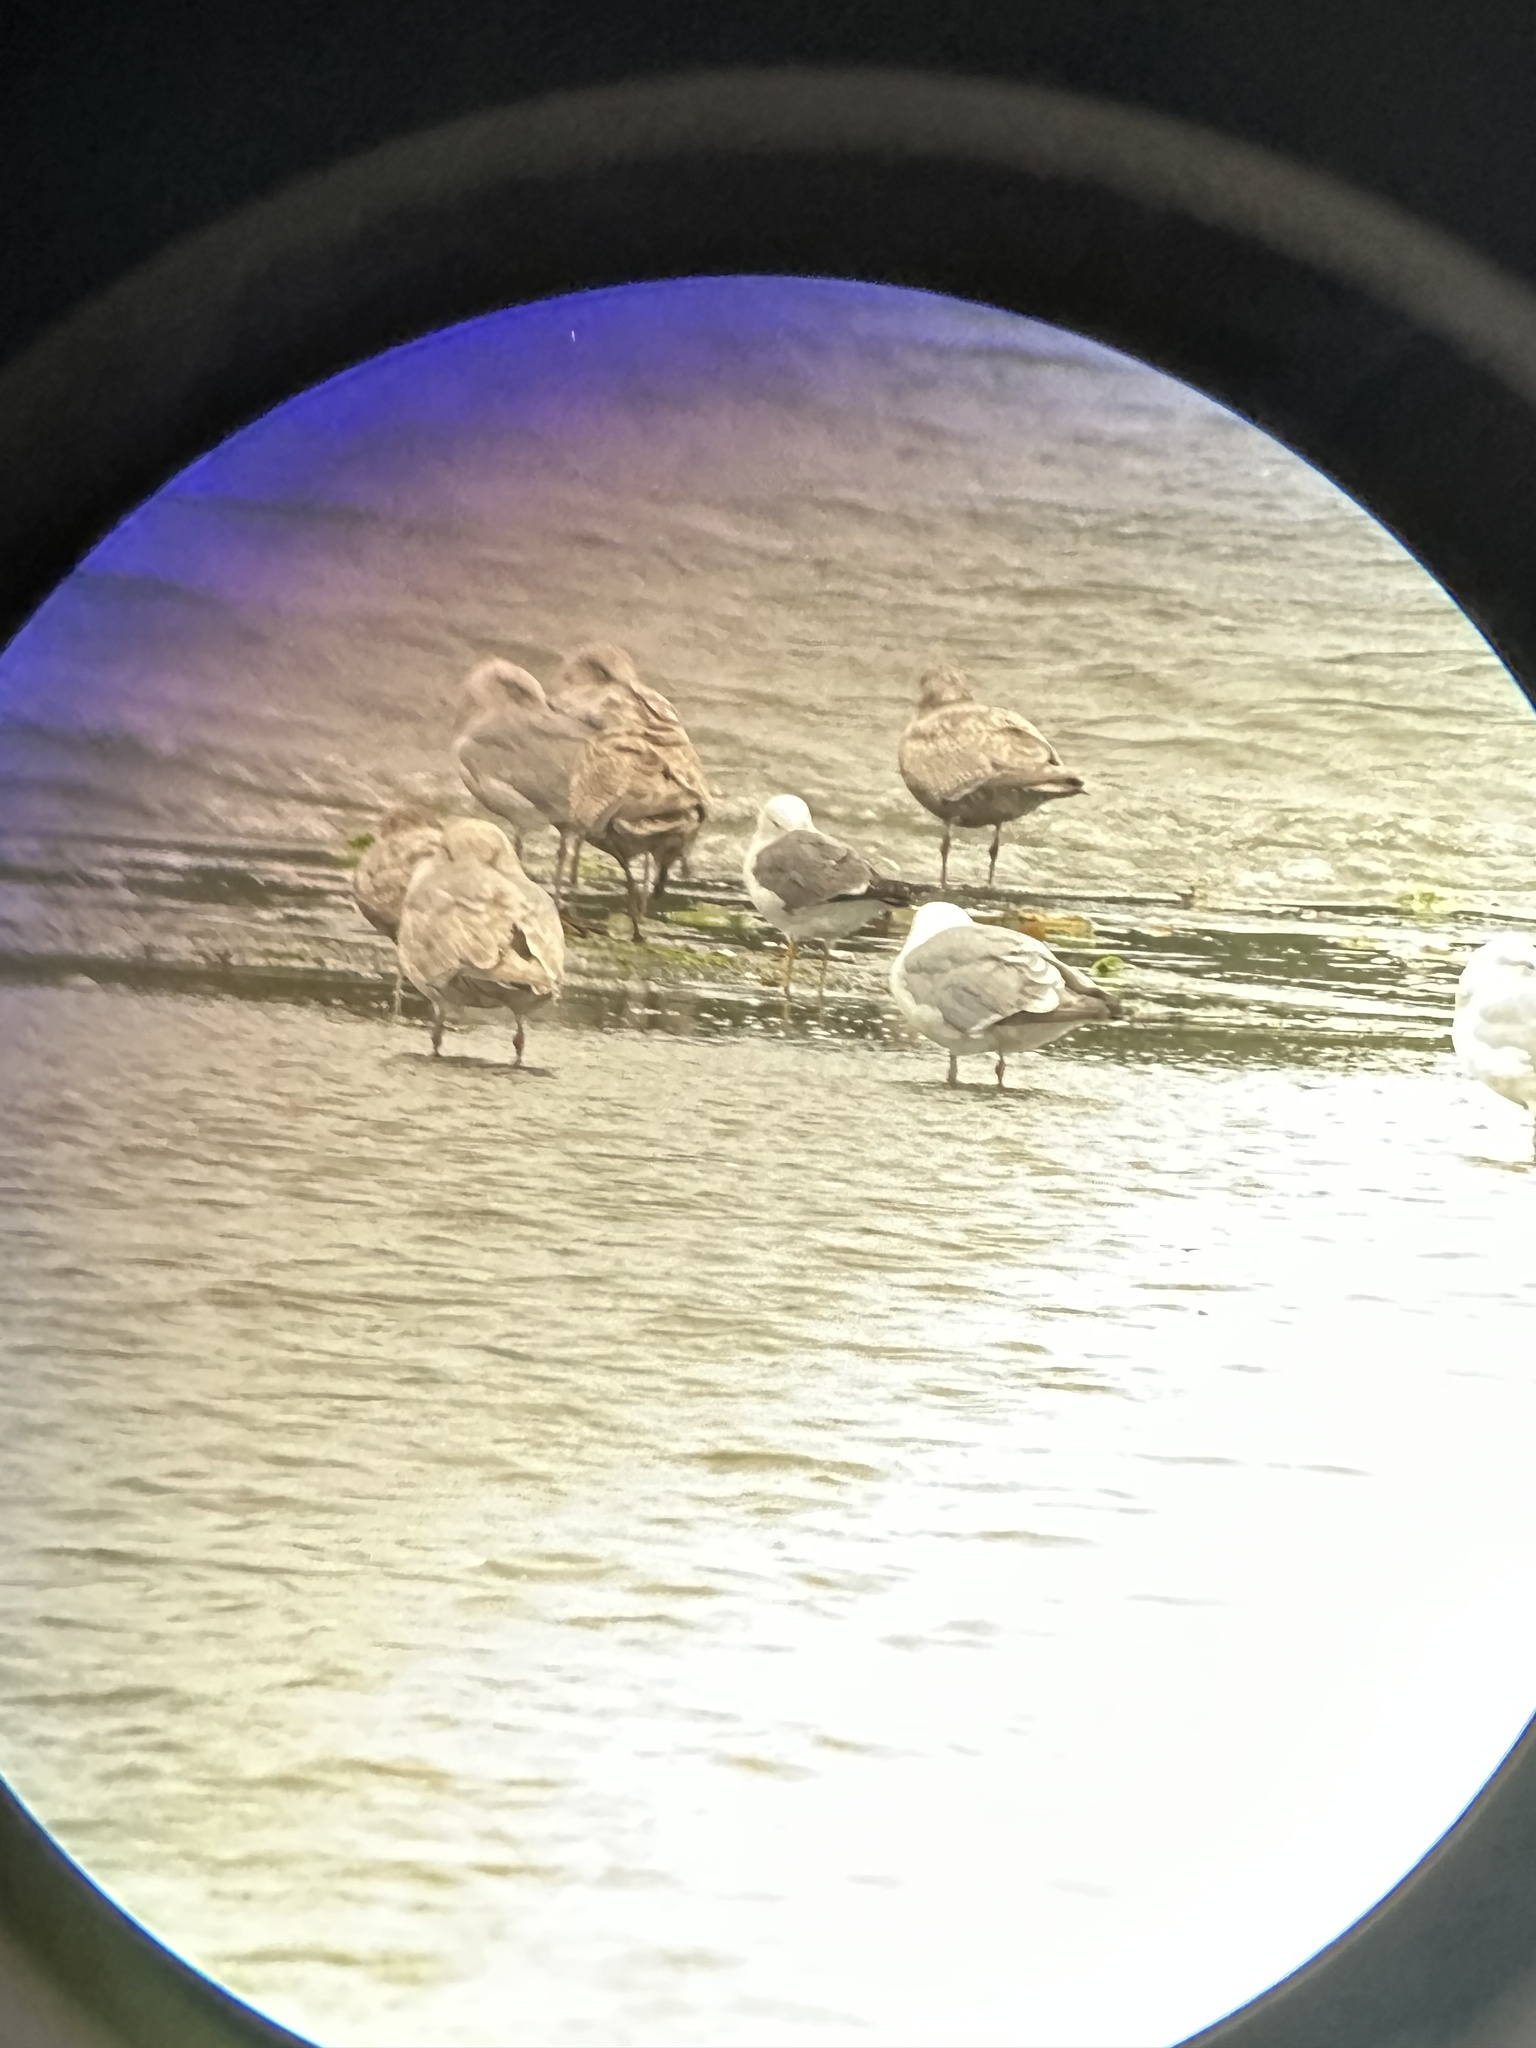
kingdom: Animalia
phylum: Chordata
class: Aves
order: Charadriiformes
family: Laridae
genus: Larus
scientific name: Larus crassirostris
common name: Black-tailed gull
